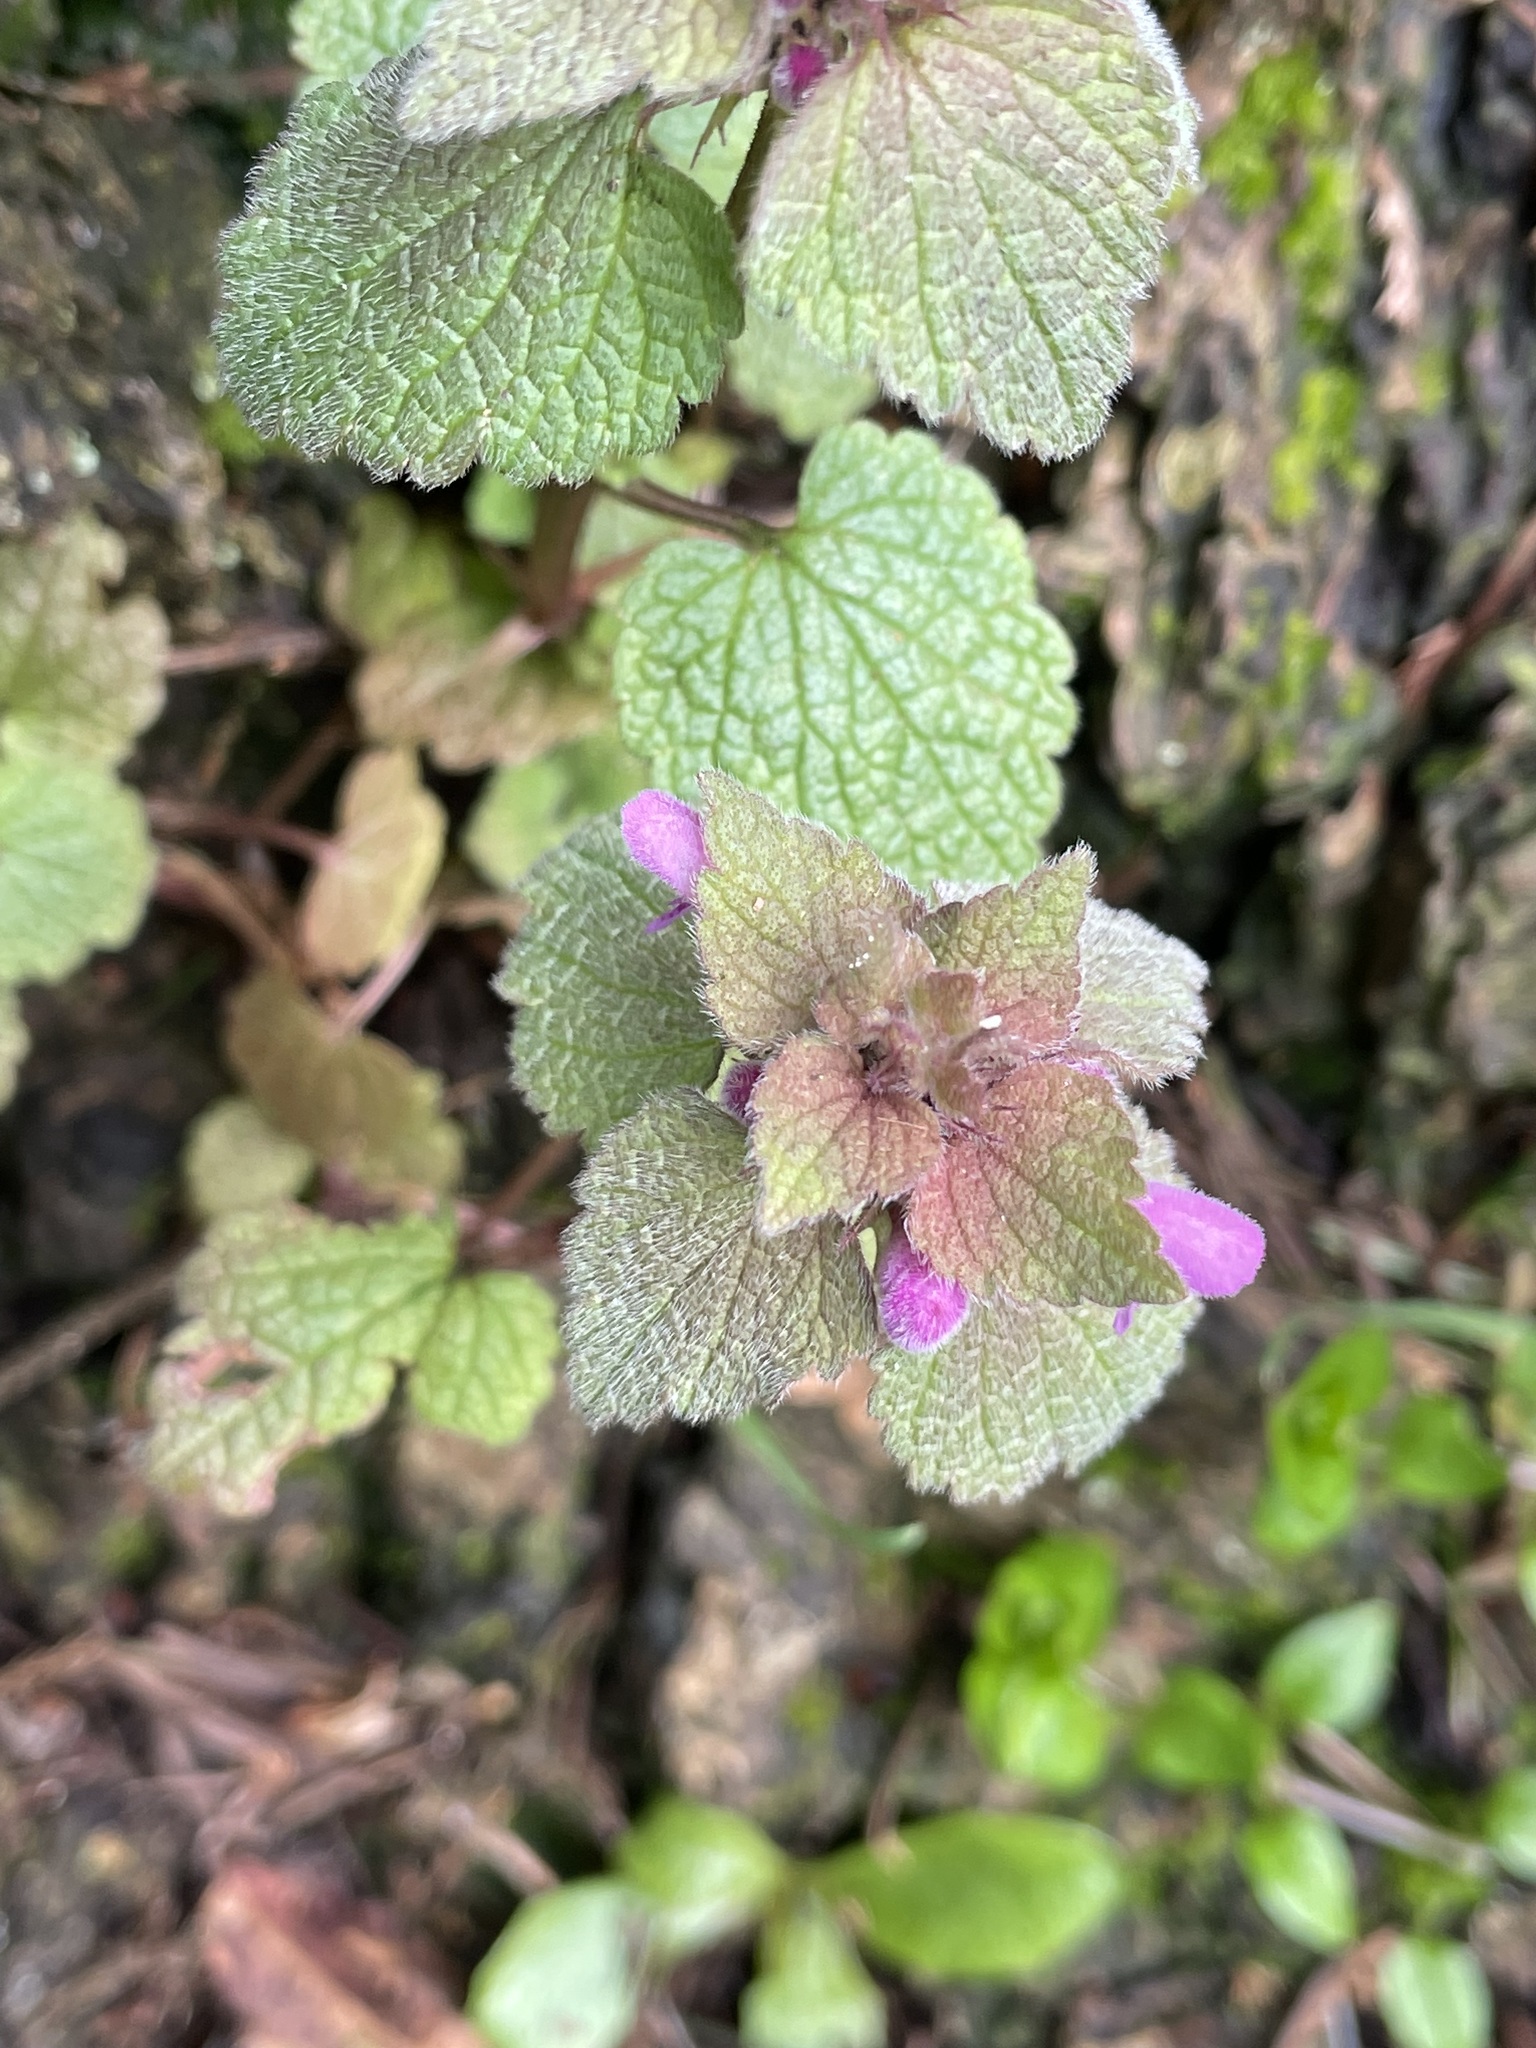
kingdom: Plantae
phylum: Tracheophyta
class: Magnoliopsida
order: Lamiales
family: Lamiaceae
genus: Lamium
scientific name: Lamium purpureum
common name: Red dead-nettle
